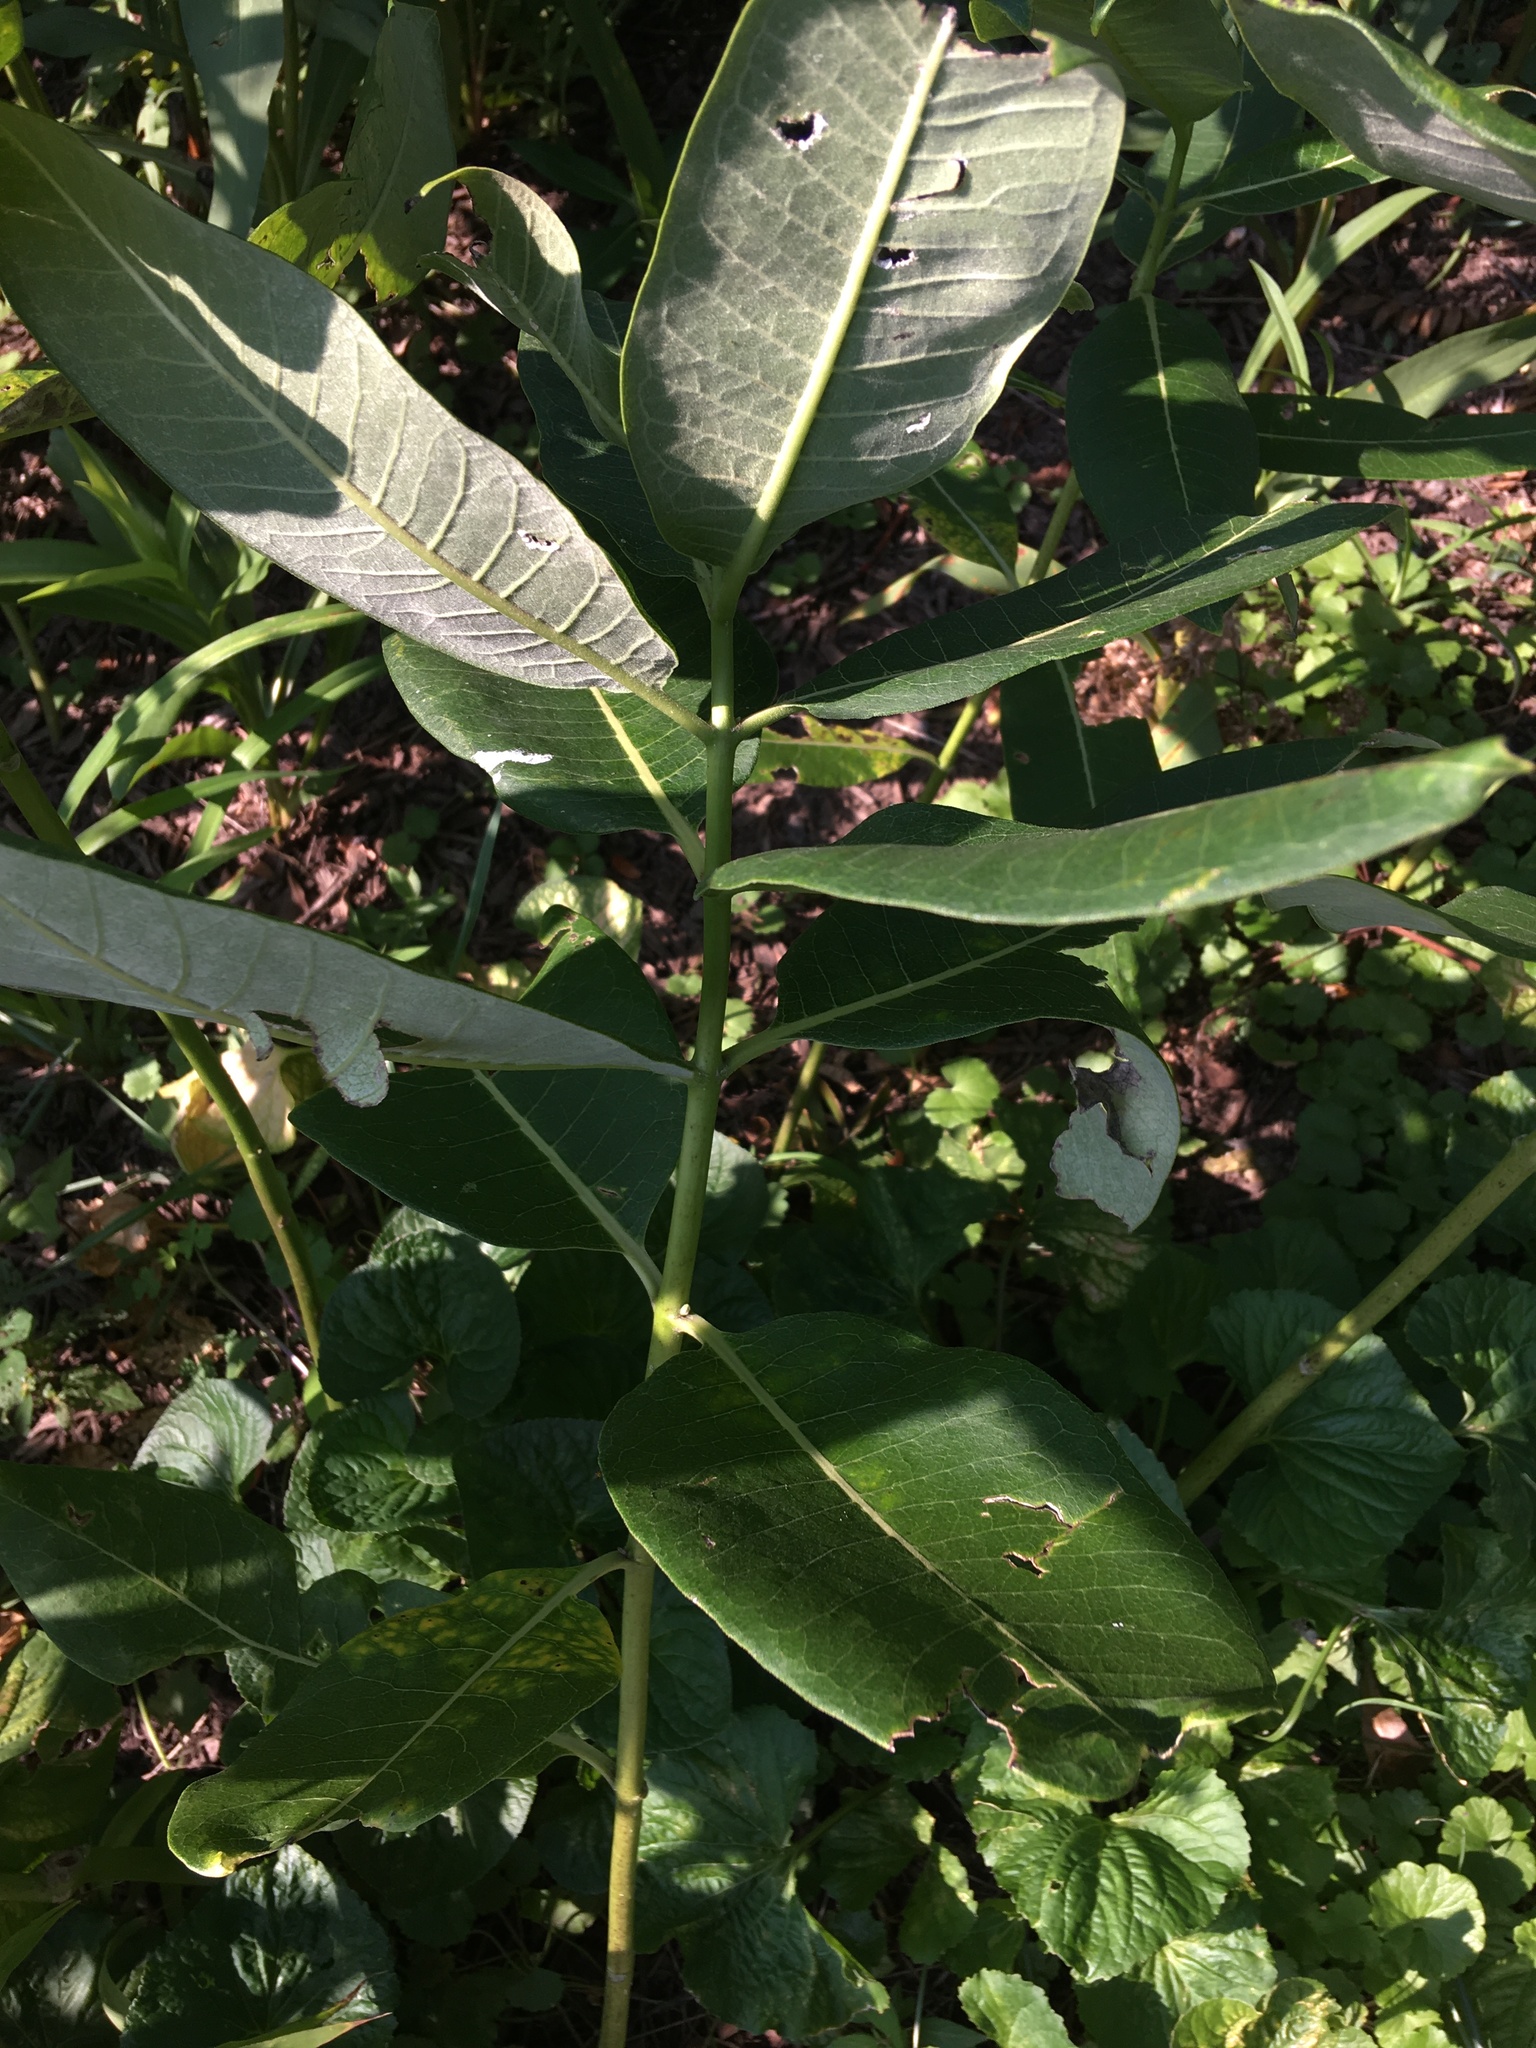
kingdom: Plantae
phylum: Tracheophyta
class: Magnoliopsida
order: Gentianales
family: Apocynaceae
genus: Asclepias
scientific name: Asclepias syriaca
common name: Common milkweed
